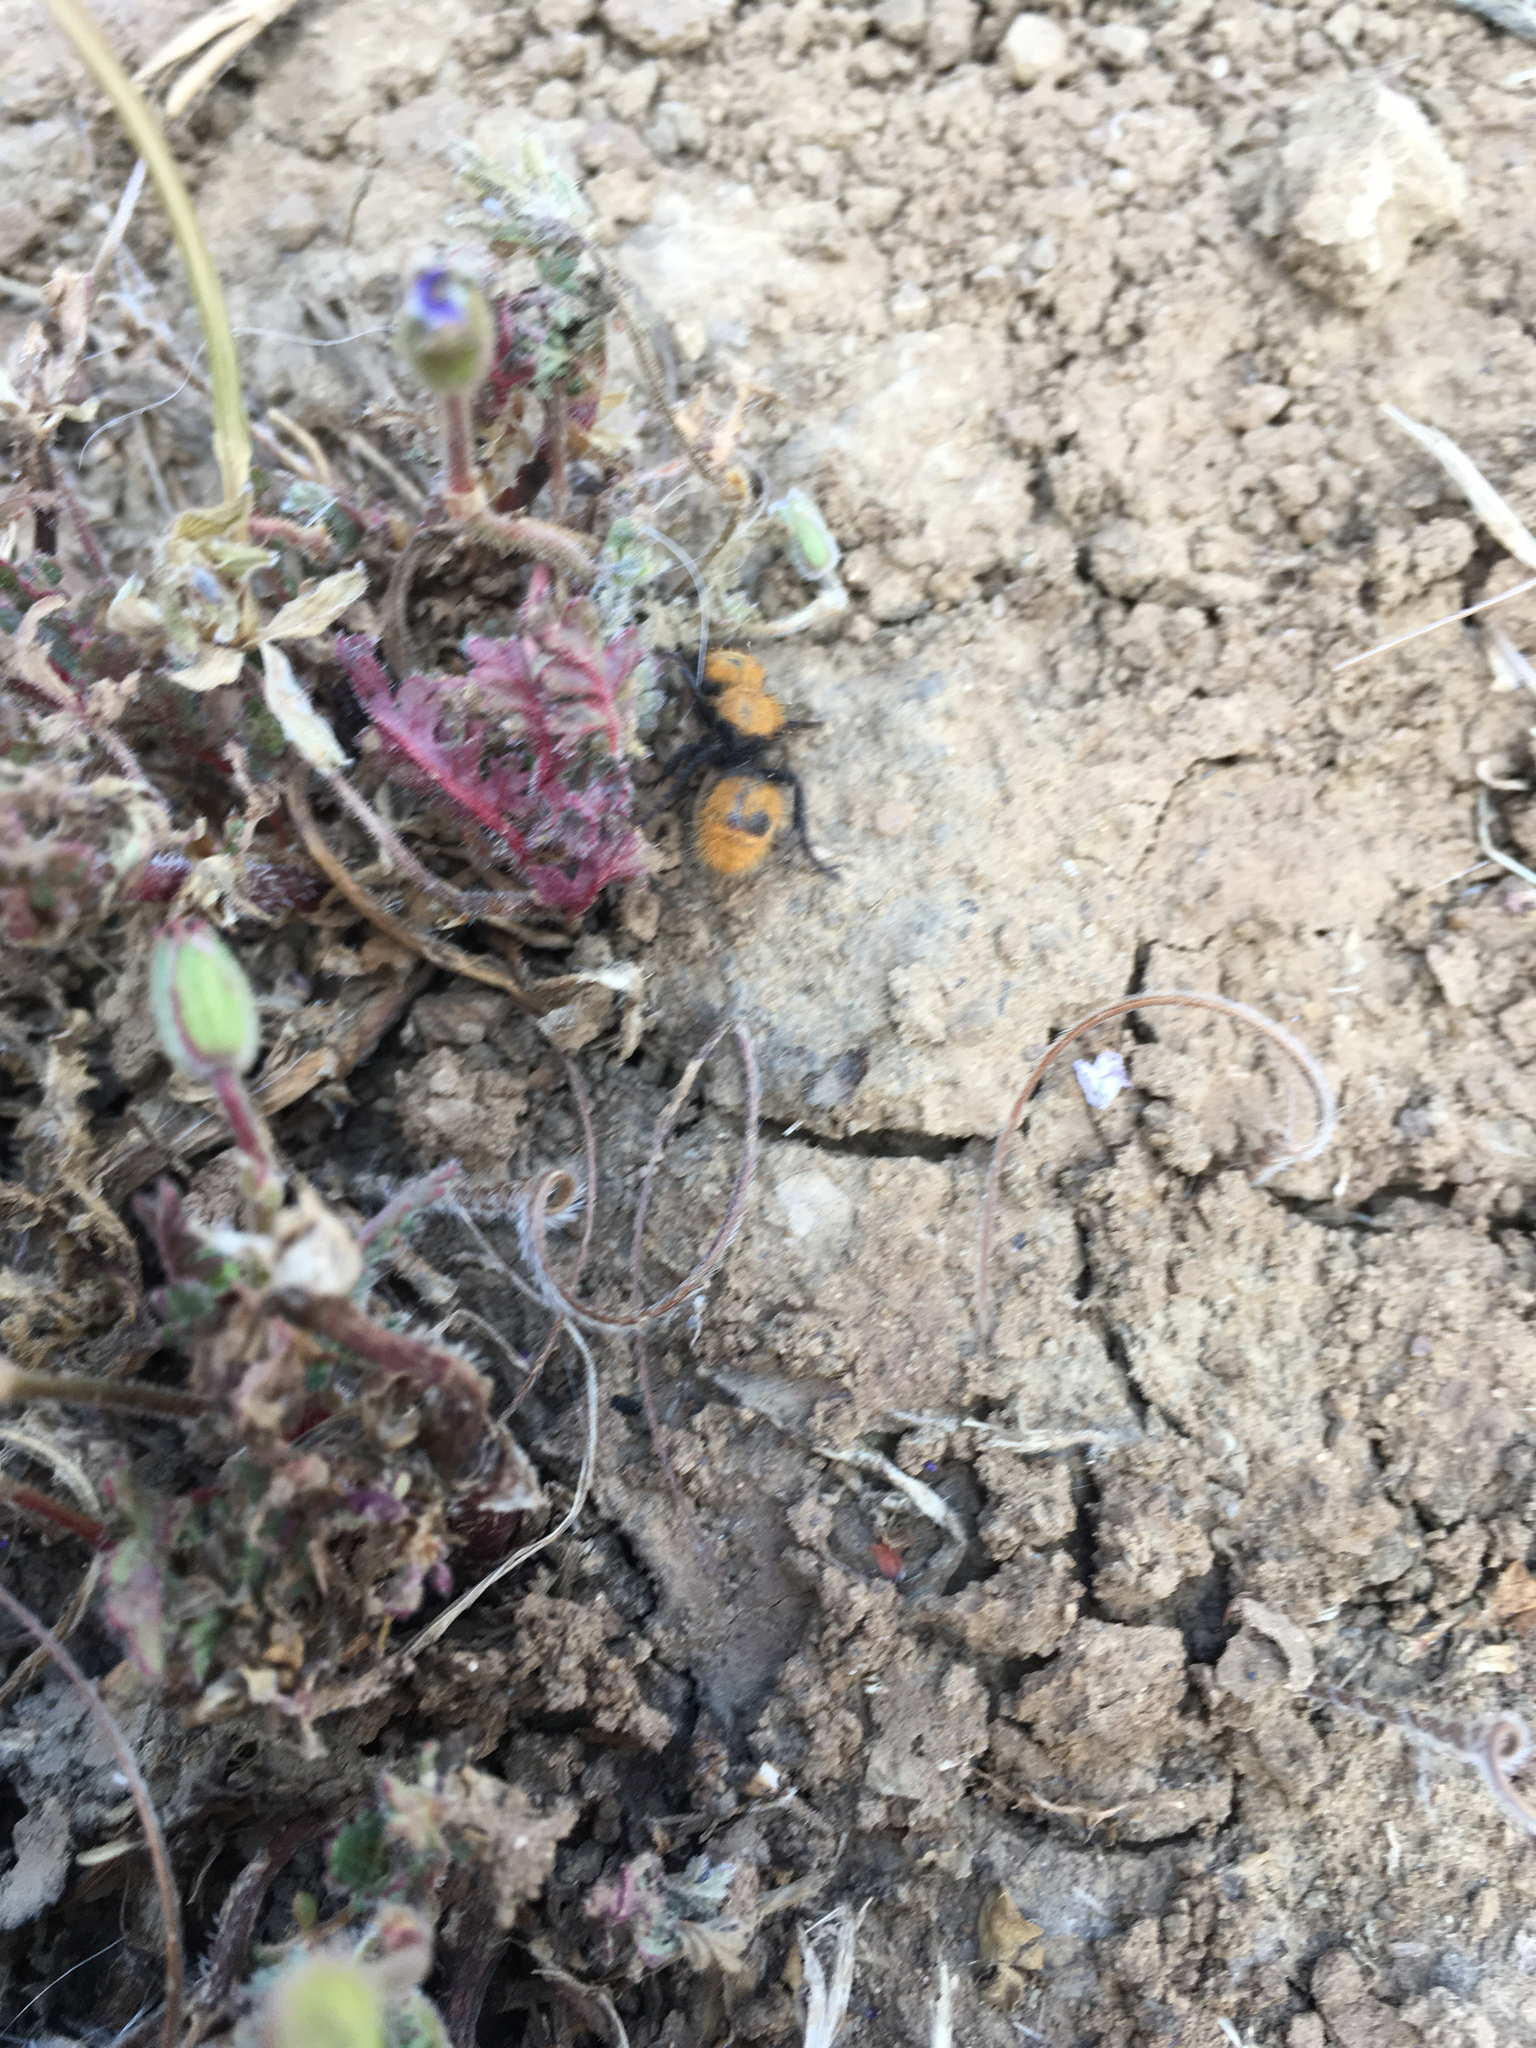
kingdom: Animalia
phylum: Arthropoda
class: Insecta
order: Hymenoptera
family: Mutillidae
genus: Dasymutilla
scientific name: Dasymutilla
